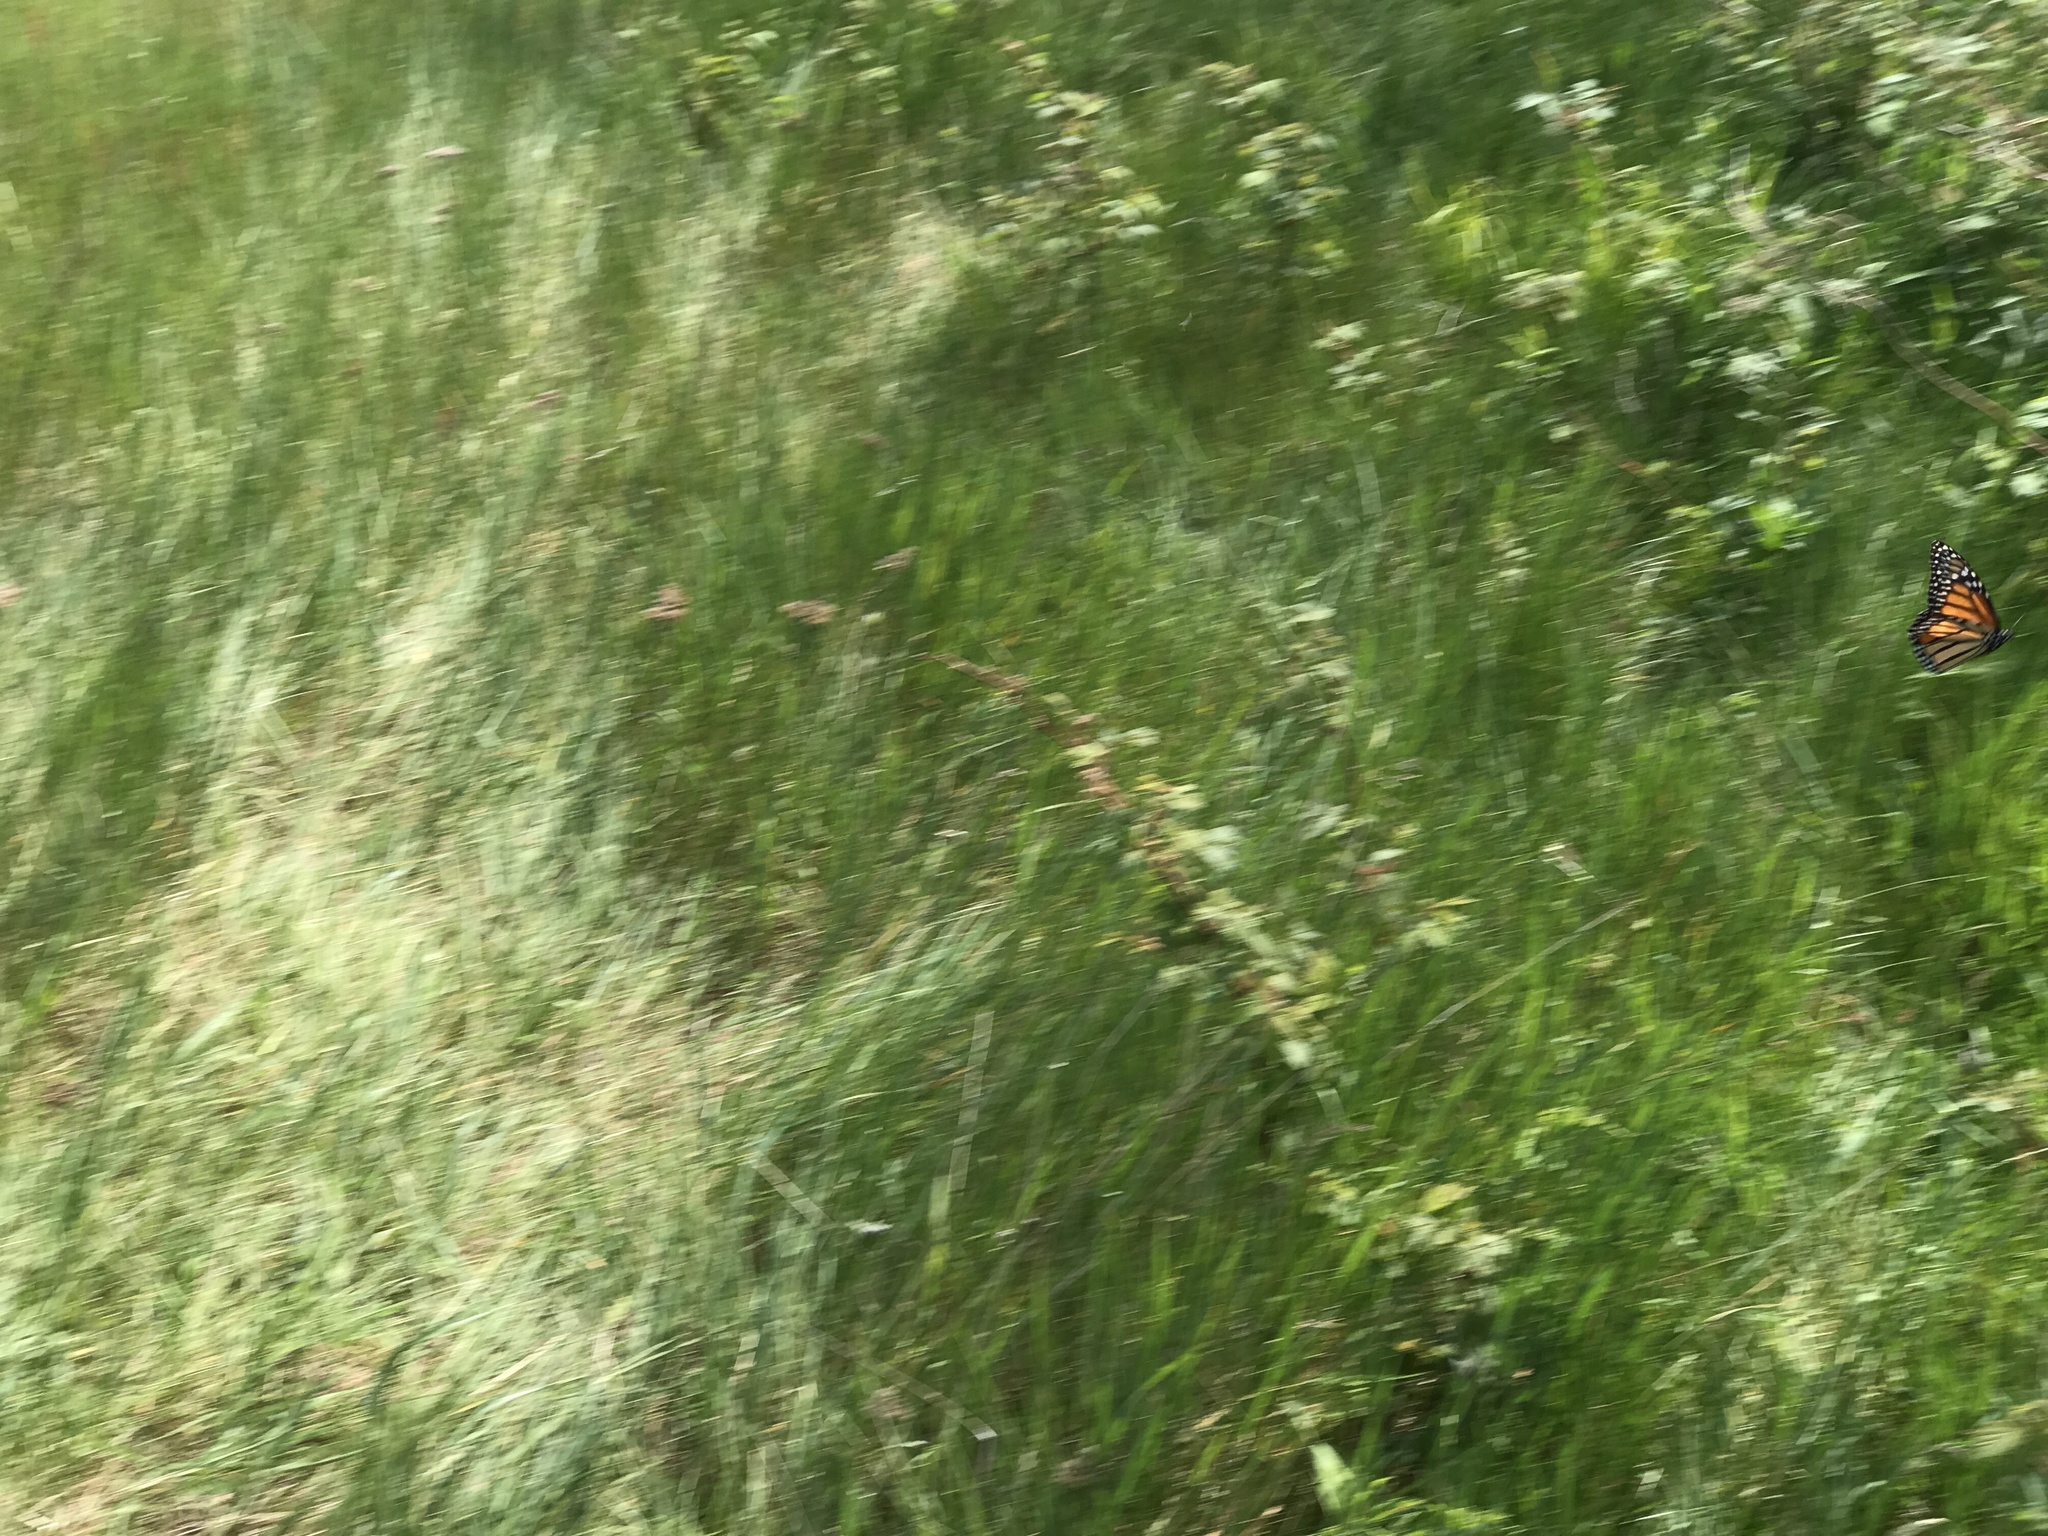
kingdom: Animalia
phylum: Arthropoda
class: Insecta
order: Lepidoptera
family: Nymphalidae
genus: Danaus
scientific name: Danaus plexippus
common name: Monarch
